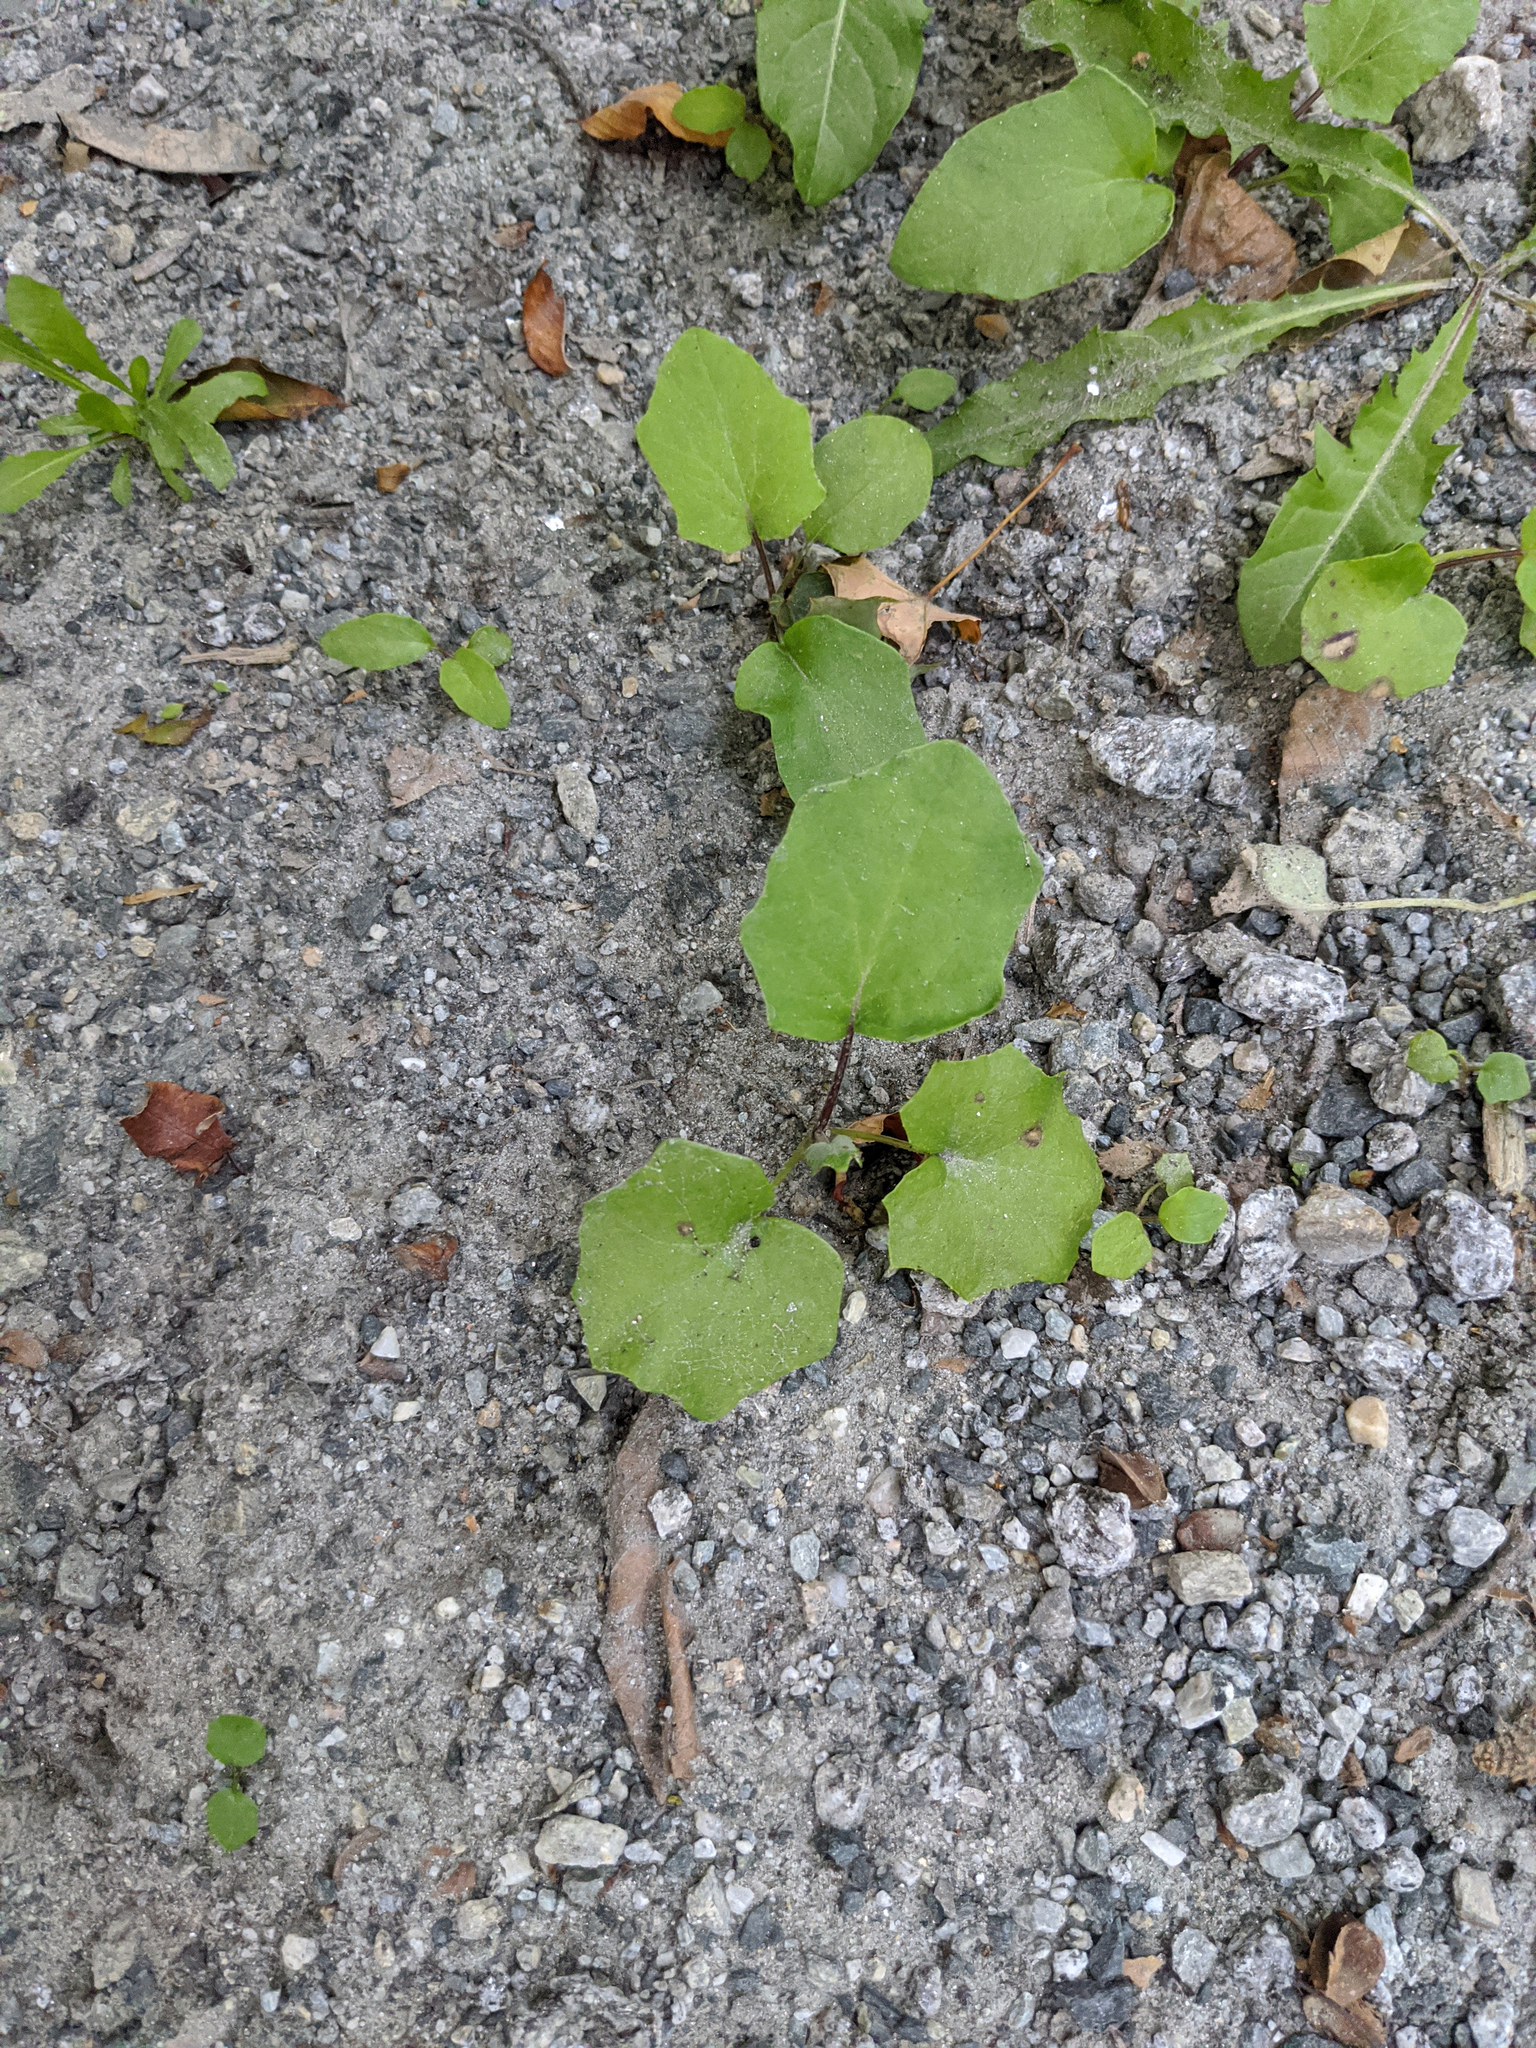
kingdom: Plantae
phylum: Tracheophyta
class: Magnoliopsida
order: Asterales
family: Asteraceae
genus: Tussilago
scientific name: Tussilago farfara
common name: Coltsfoot
